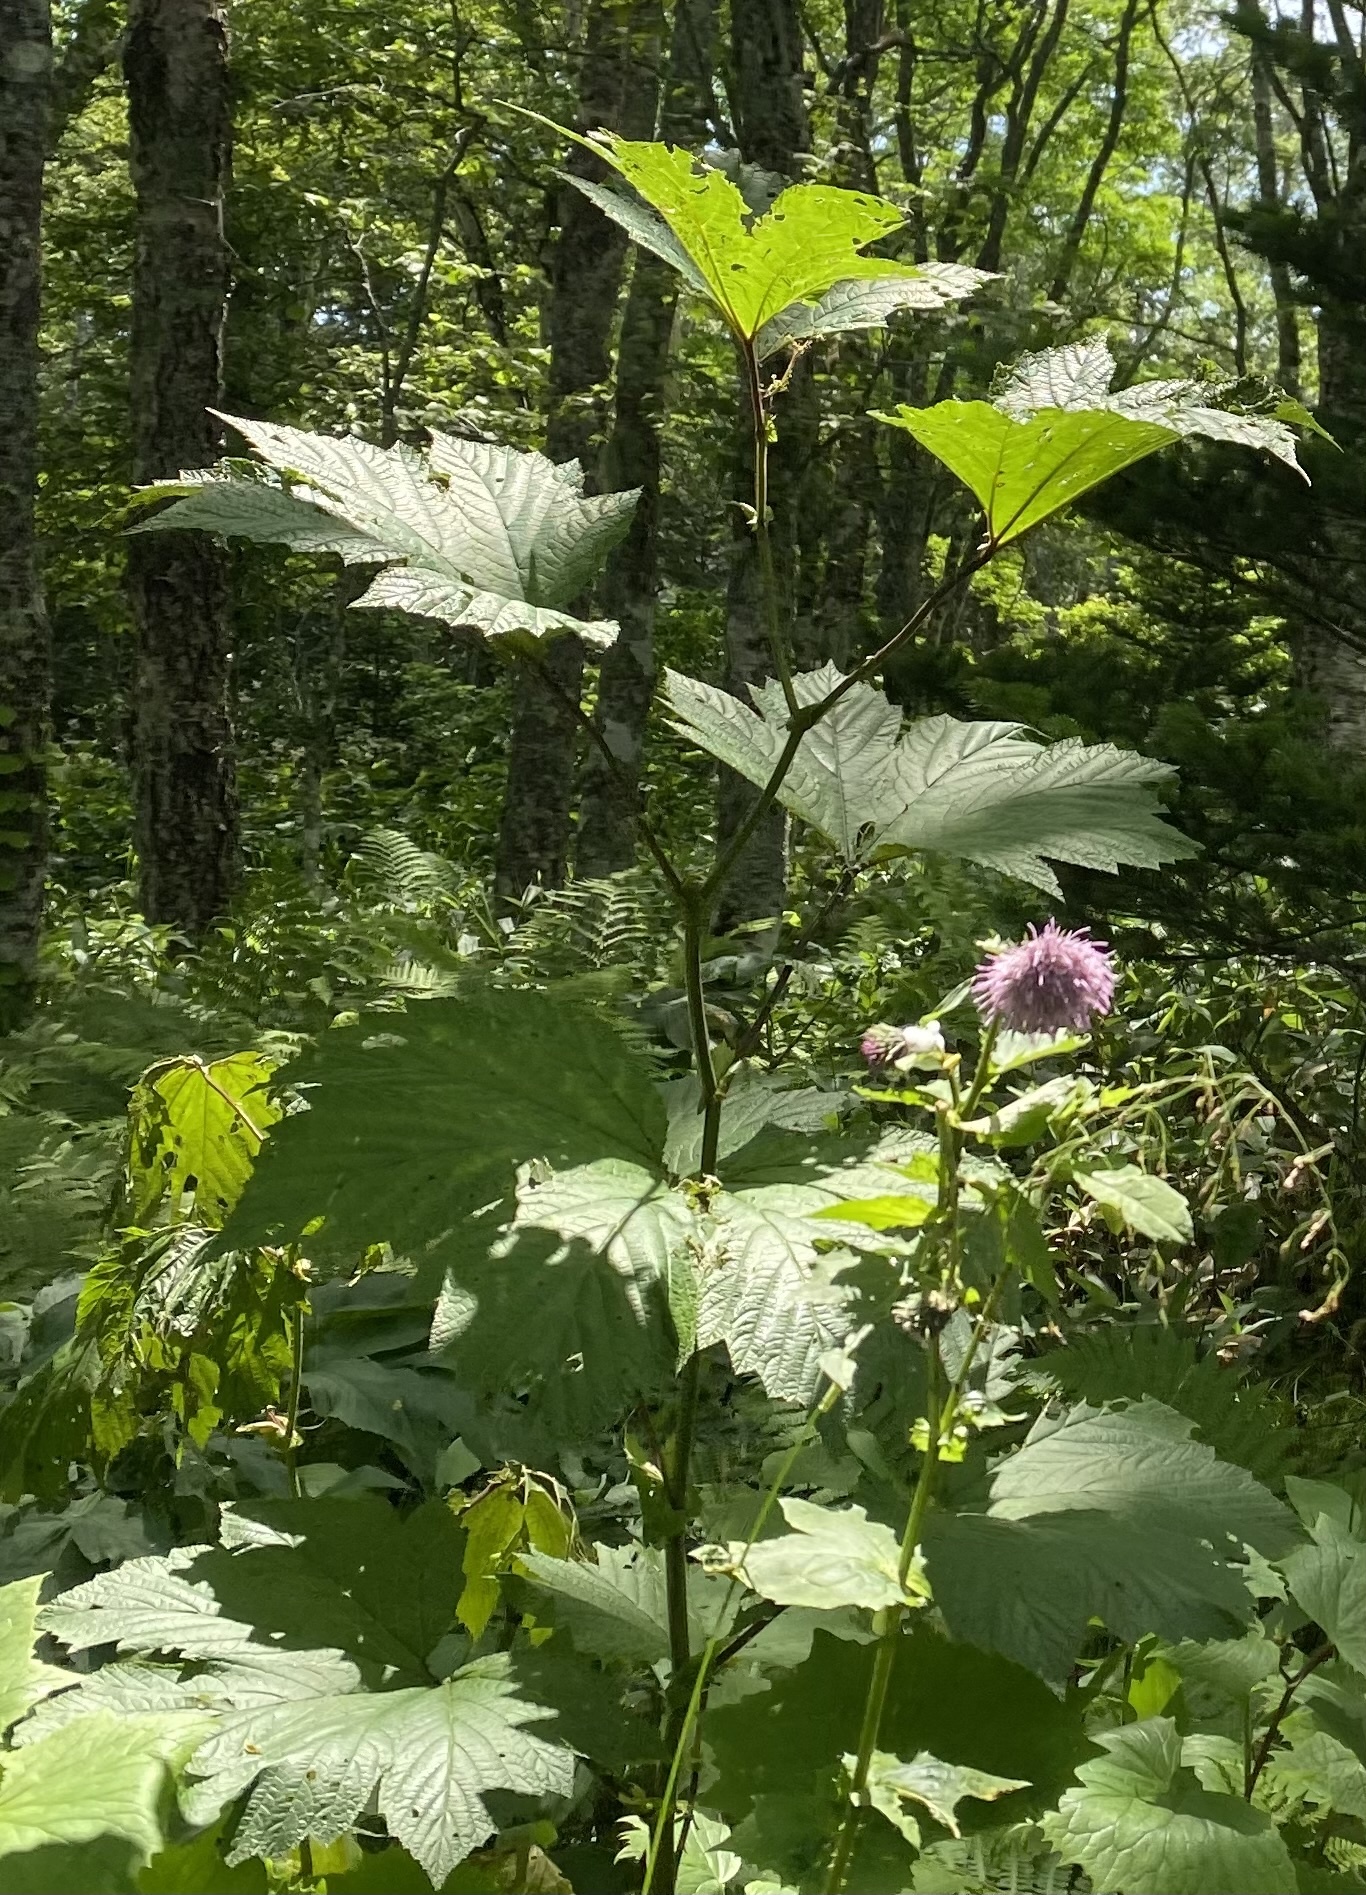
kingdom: Plantae
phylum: Tracheophyta
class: Magnoliopsida
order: Rosales
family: Rosaceae
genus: Filipendula
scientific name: Filipendula camtschatica
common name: Giant meadowsweet
